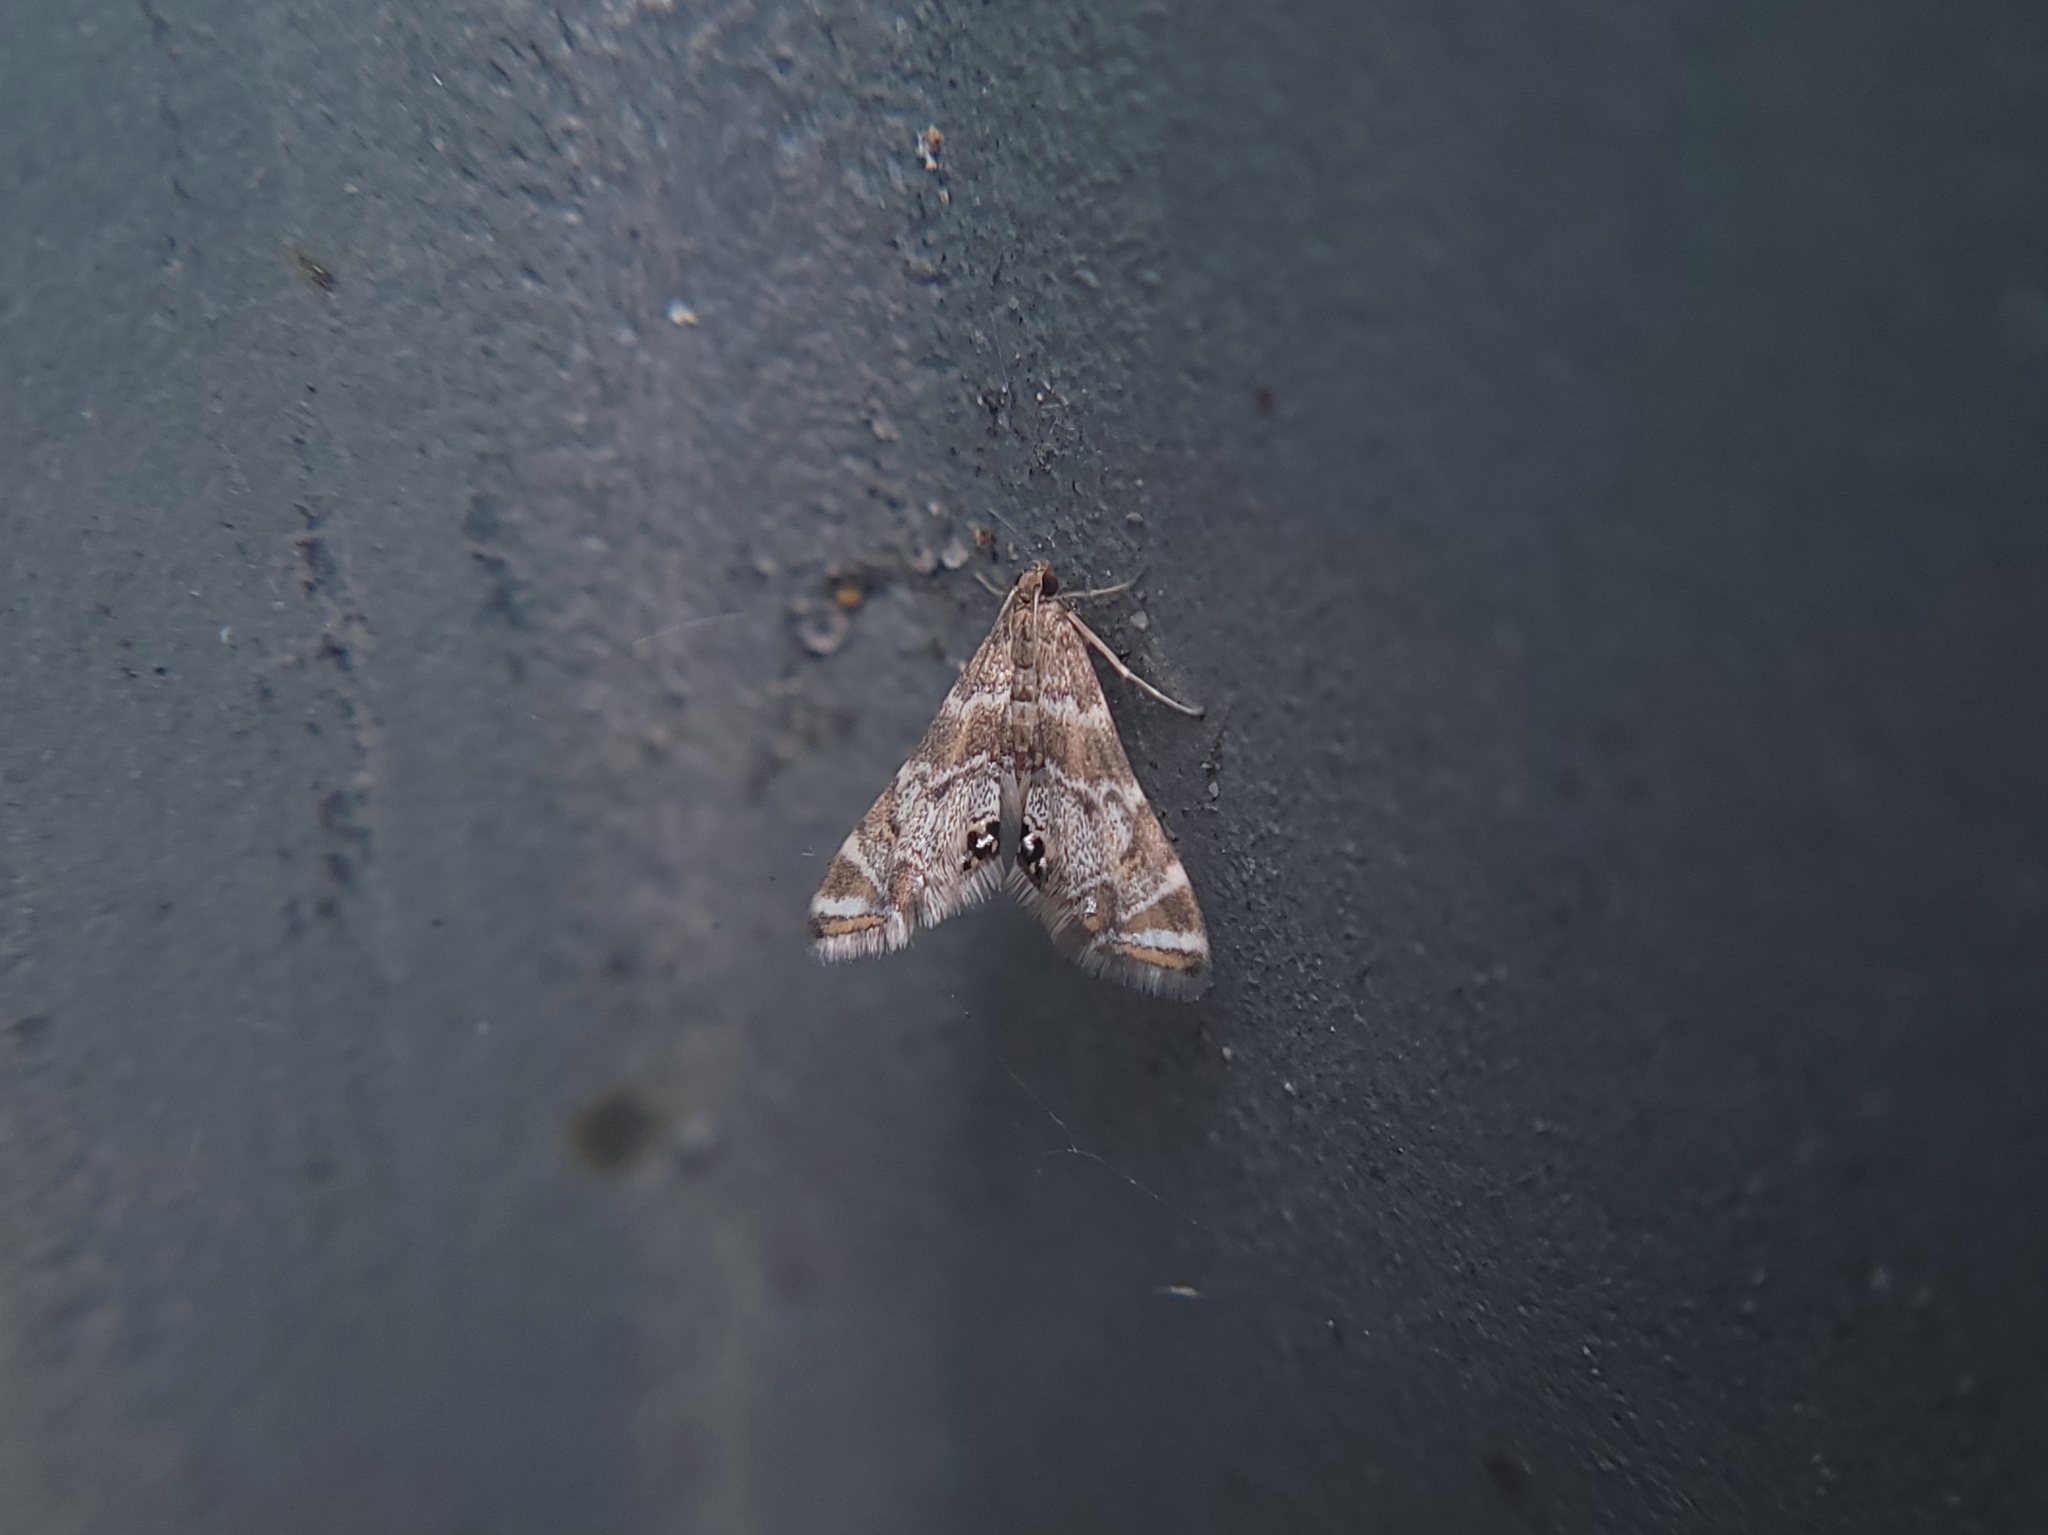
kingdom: Animalia
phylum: Arthropoda
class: Insecta
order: Lepidoptera
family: Crambidae
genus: Petrophila
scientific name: Petrophila confusalis
